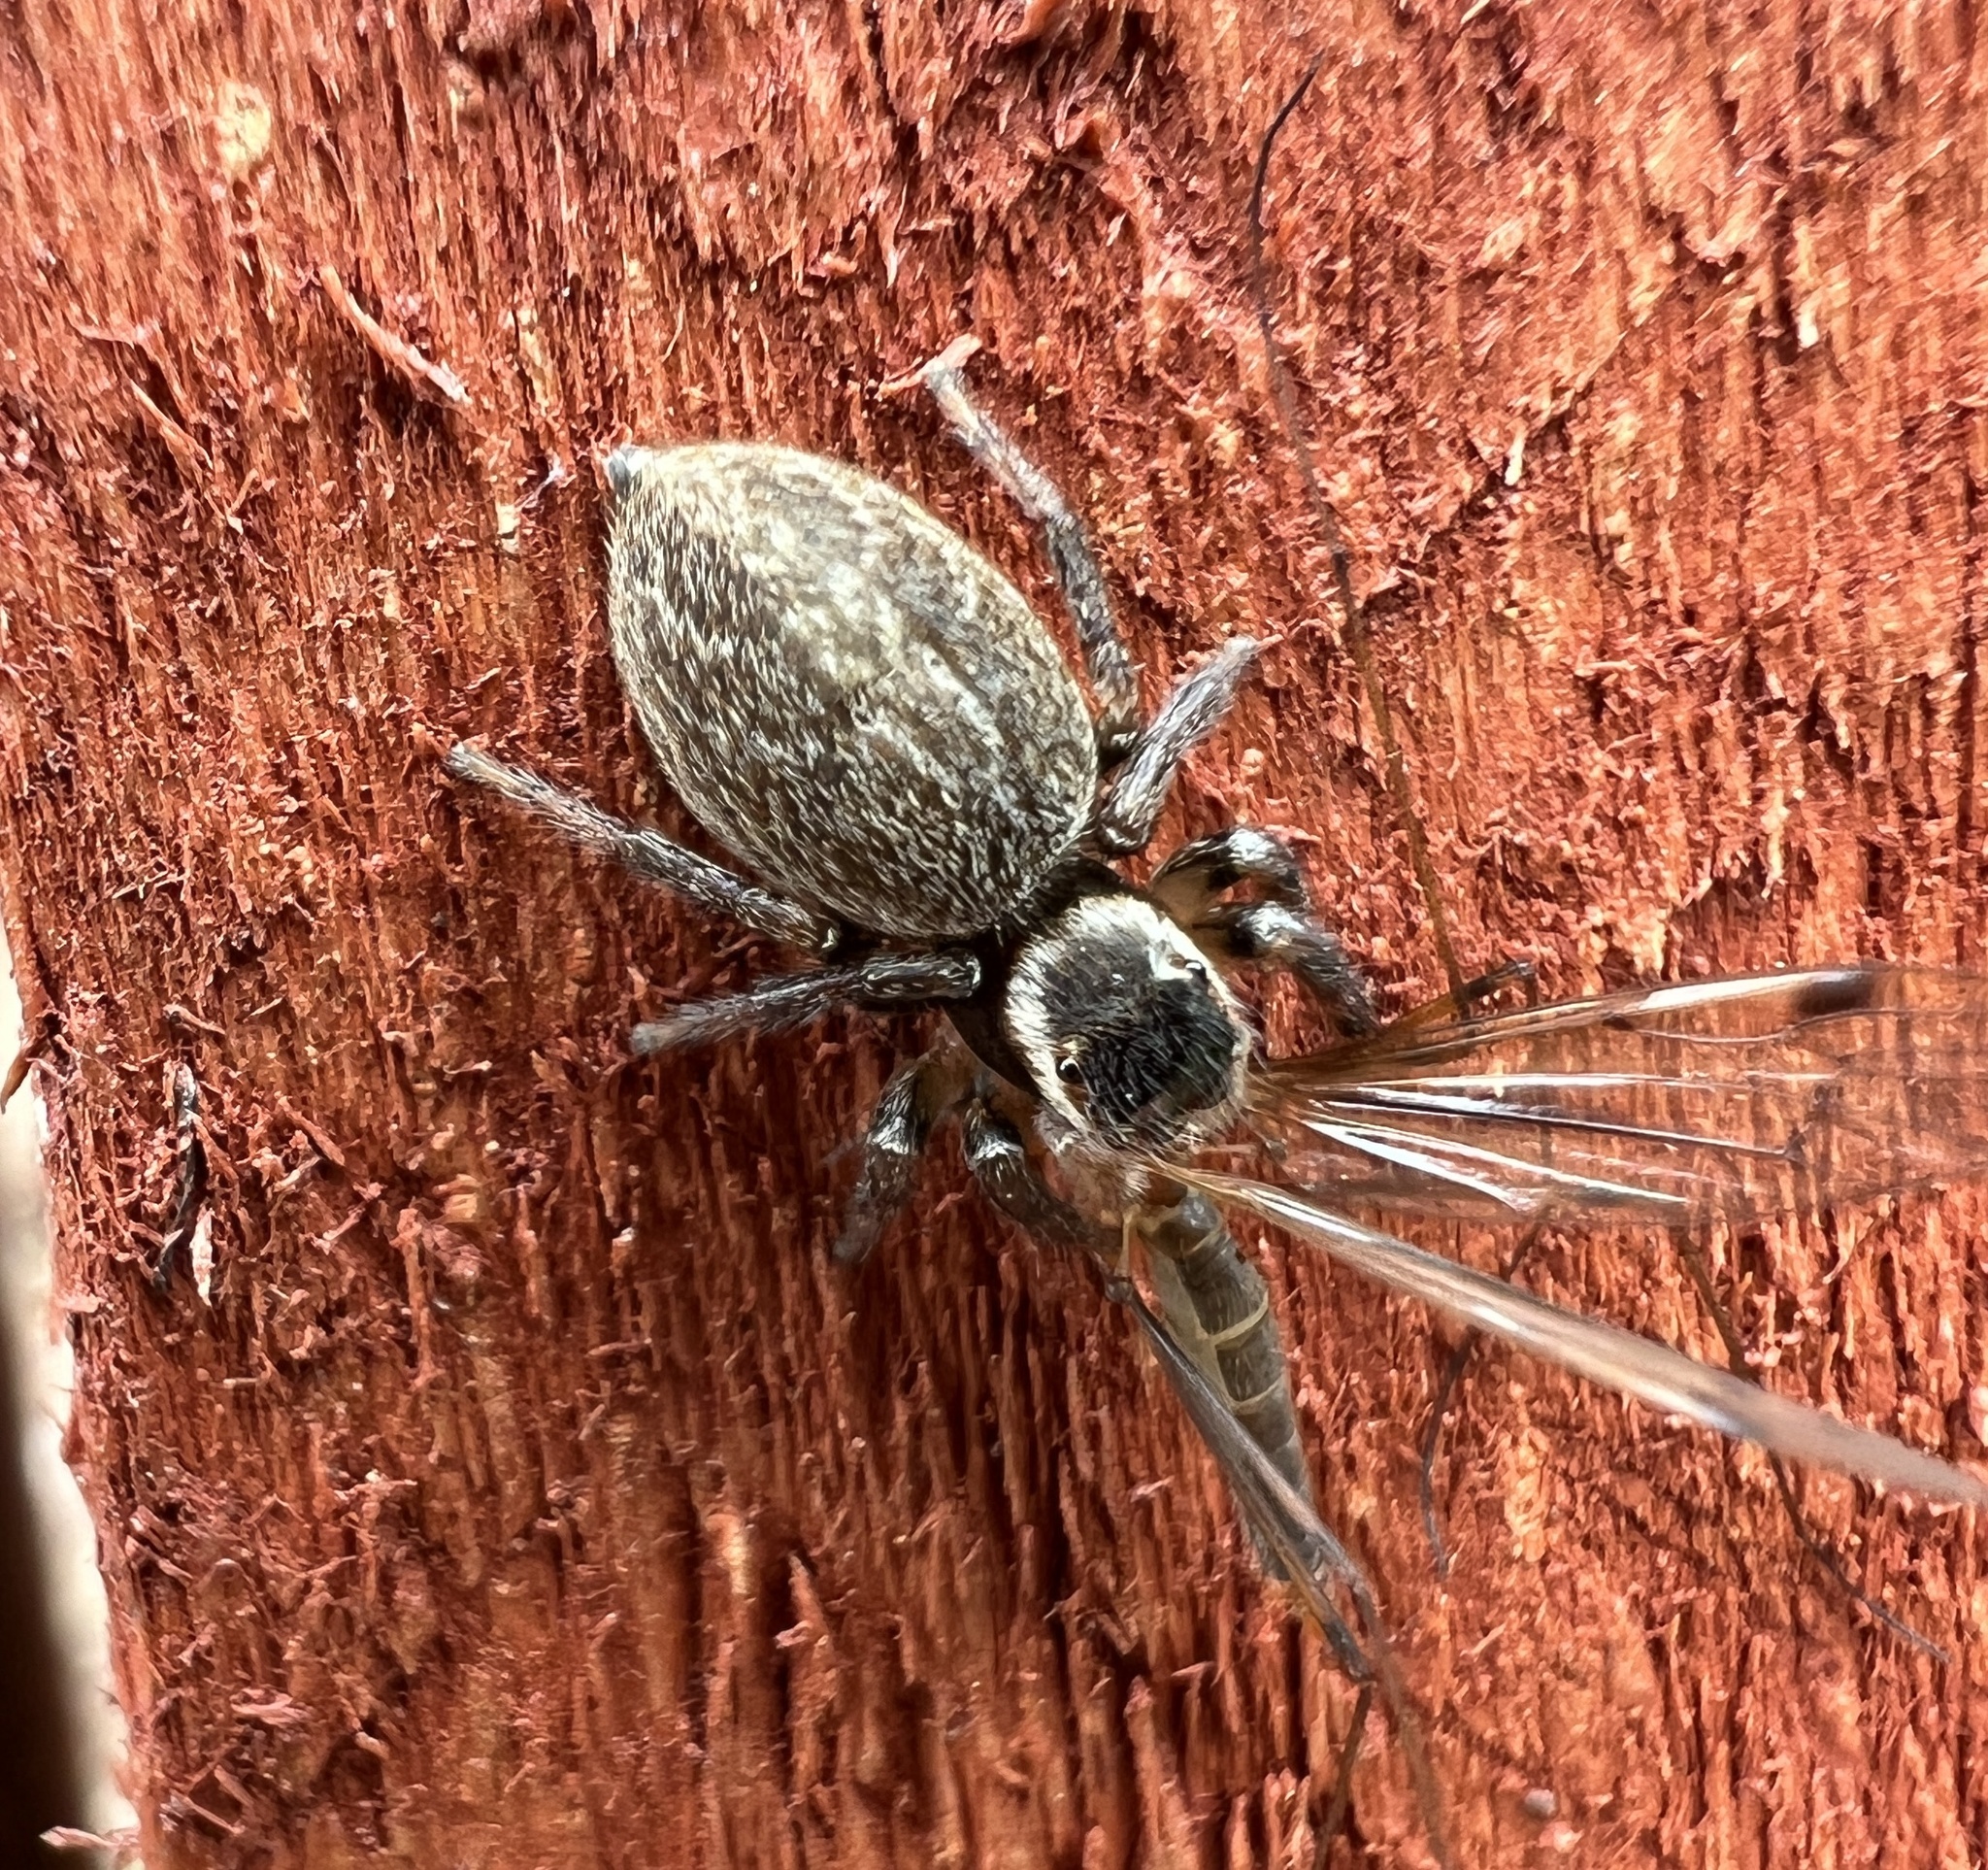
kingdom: Animalia
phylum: Arthropoda
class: Arachnida
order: Araneae
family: Salticidae
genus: Maratus
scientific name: Maratus griseus
